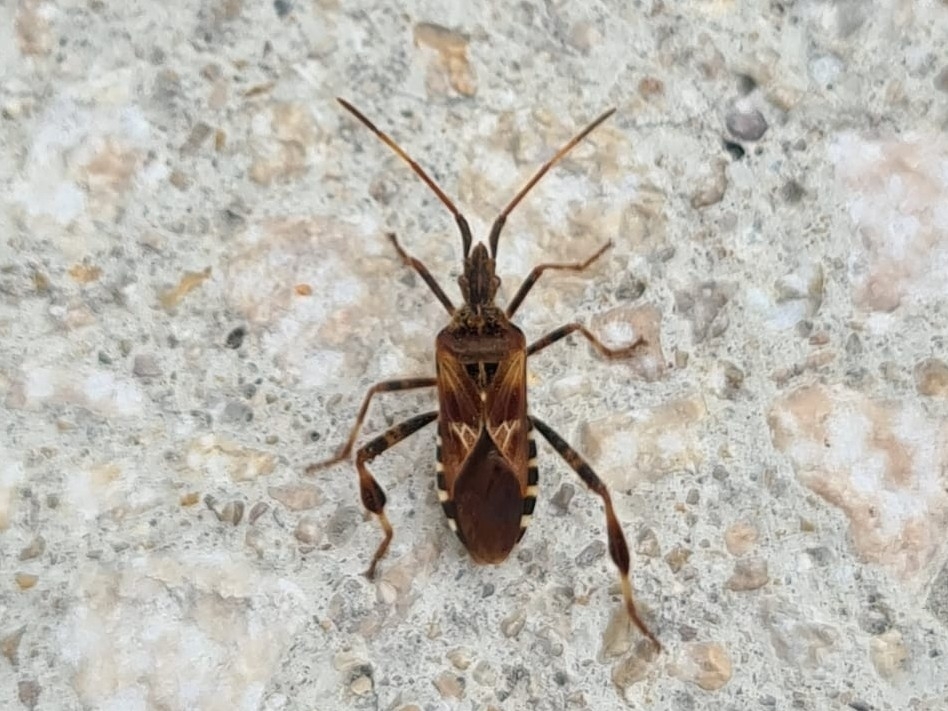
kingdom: Animalia
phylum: Arthropoda
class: Insecta
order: Hemiptera
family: Coreidae
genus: Leptoglossus
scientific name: Leptoglossus occidentalis
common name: Western conifer-seed bug
